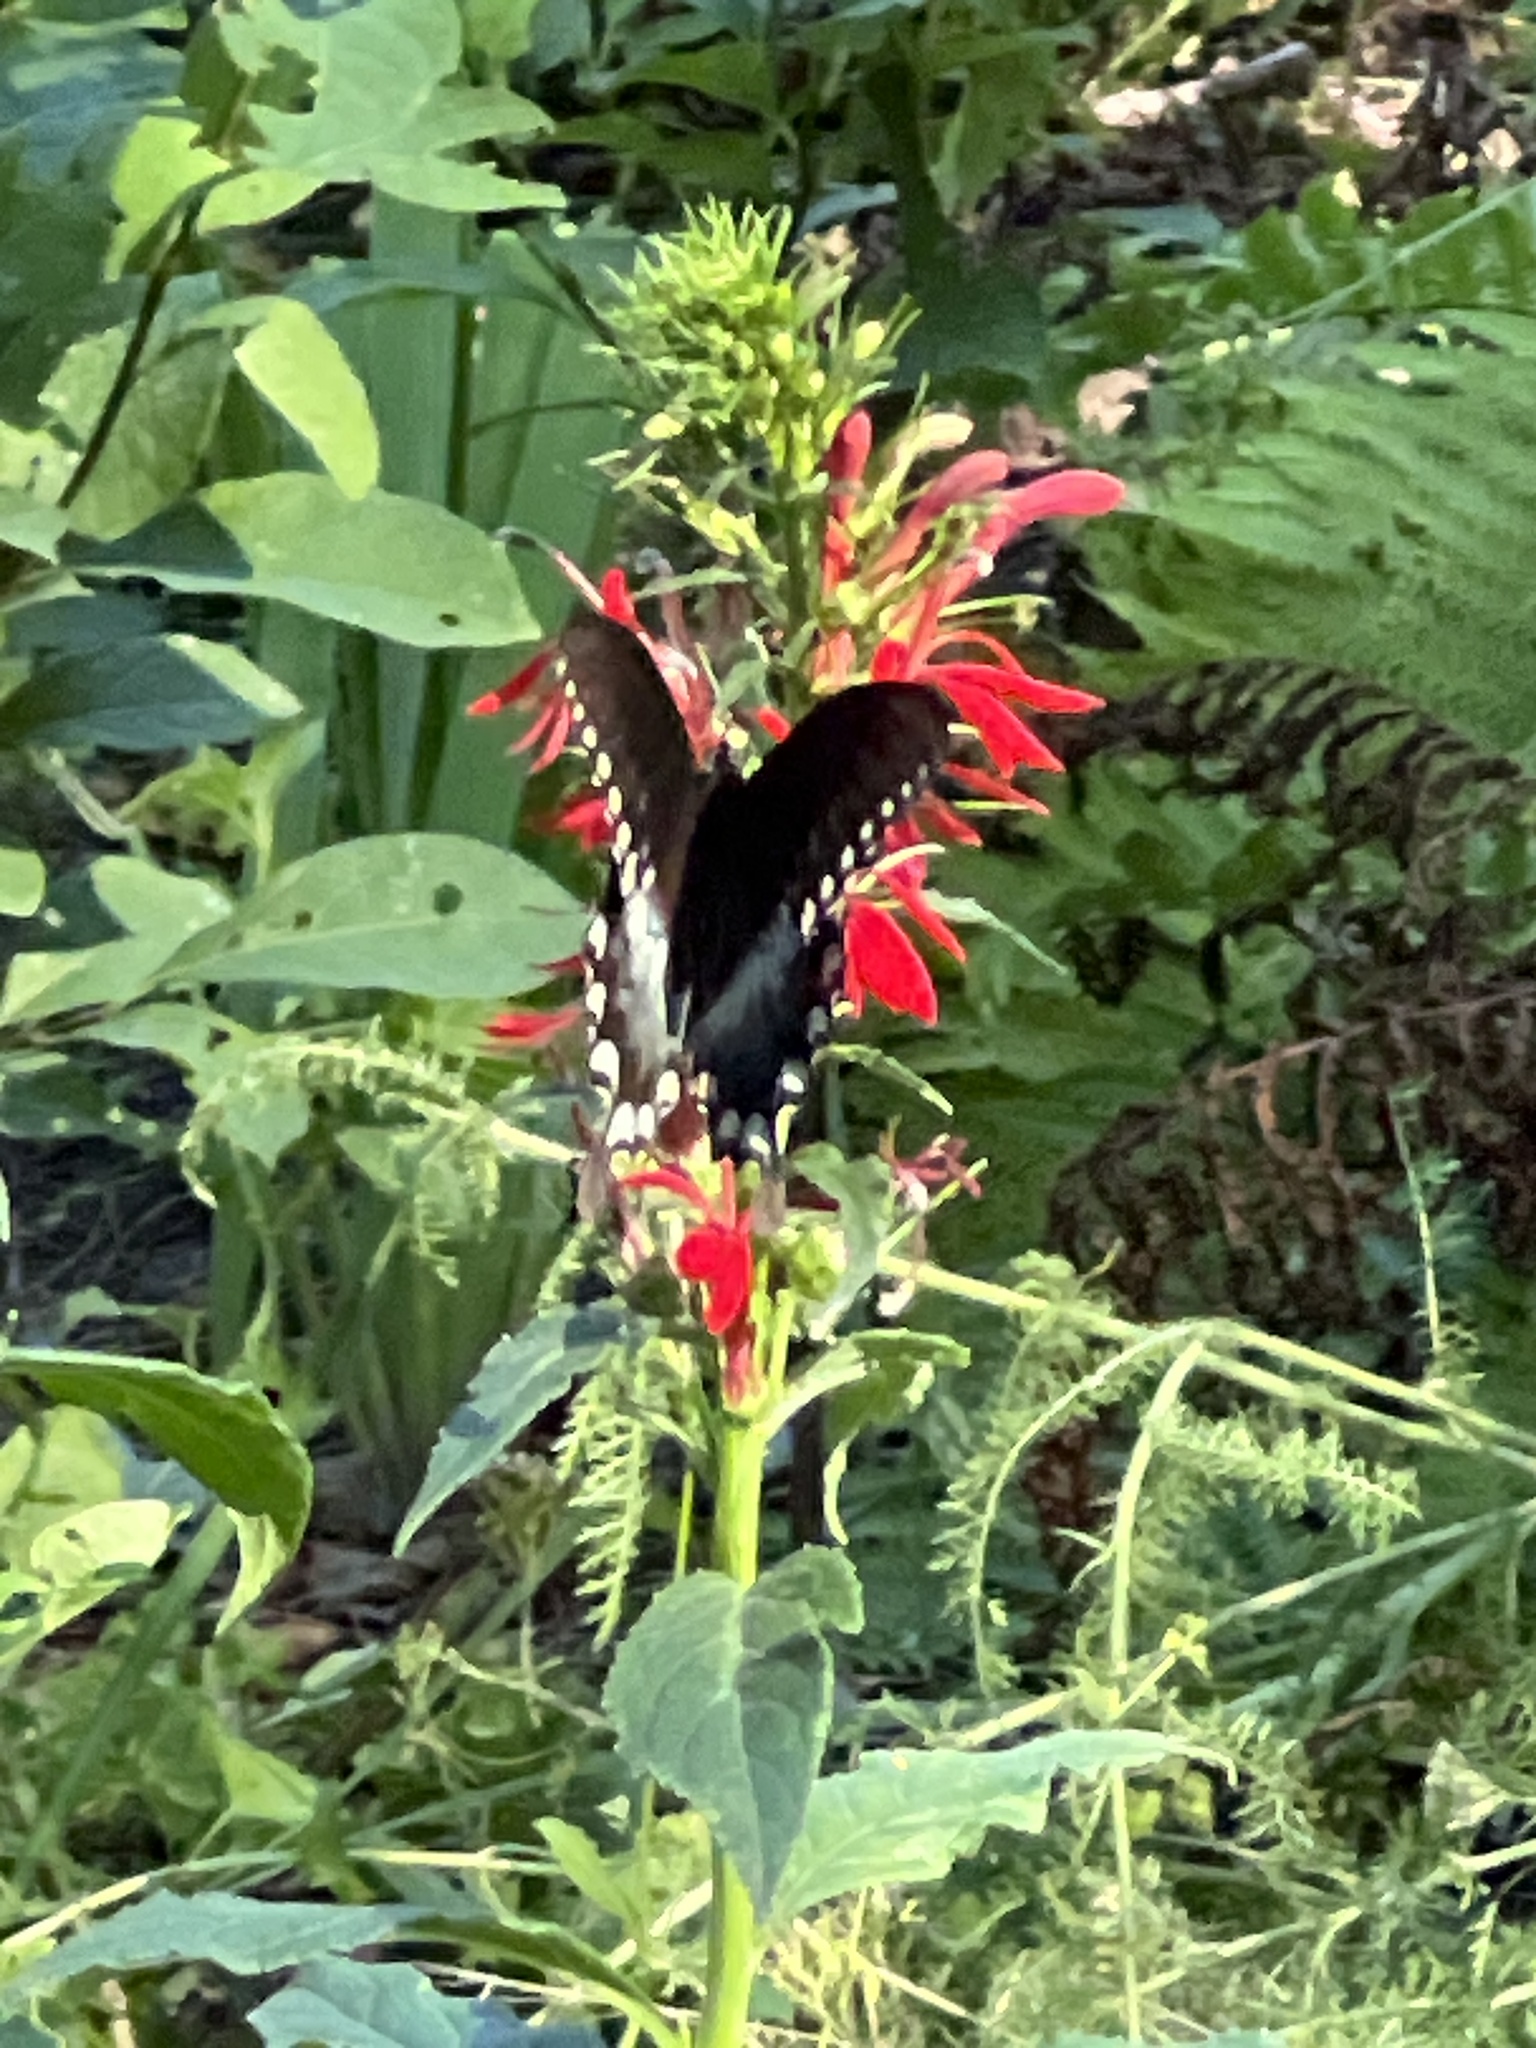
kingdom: Animalia
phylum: Arthropoda
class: Insecta
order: Lepidoptera
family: Papilionidae
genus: Papilio
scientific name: Papilio troilus
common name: Spicebush swallowtail
